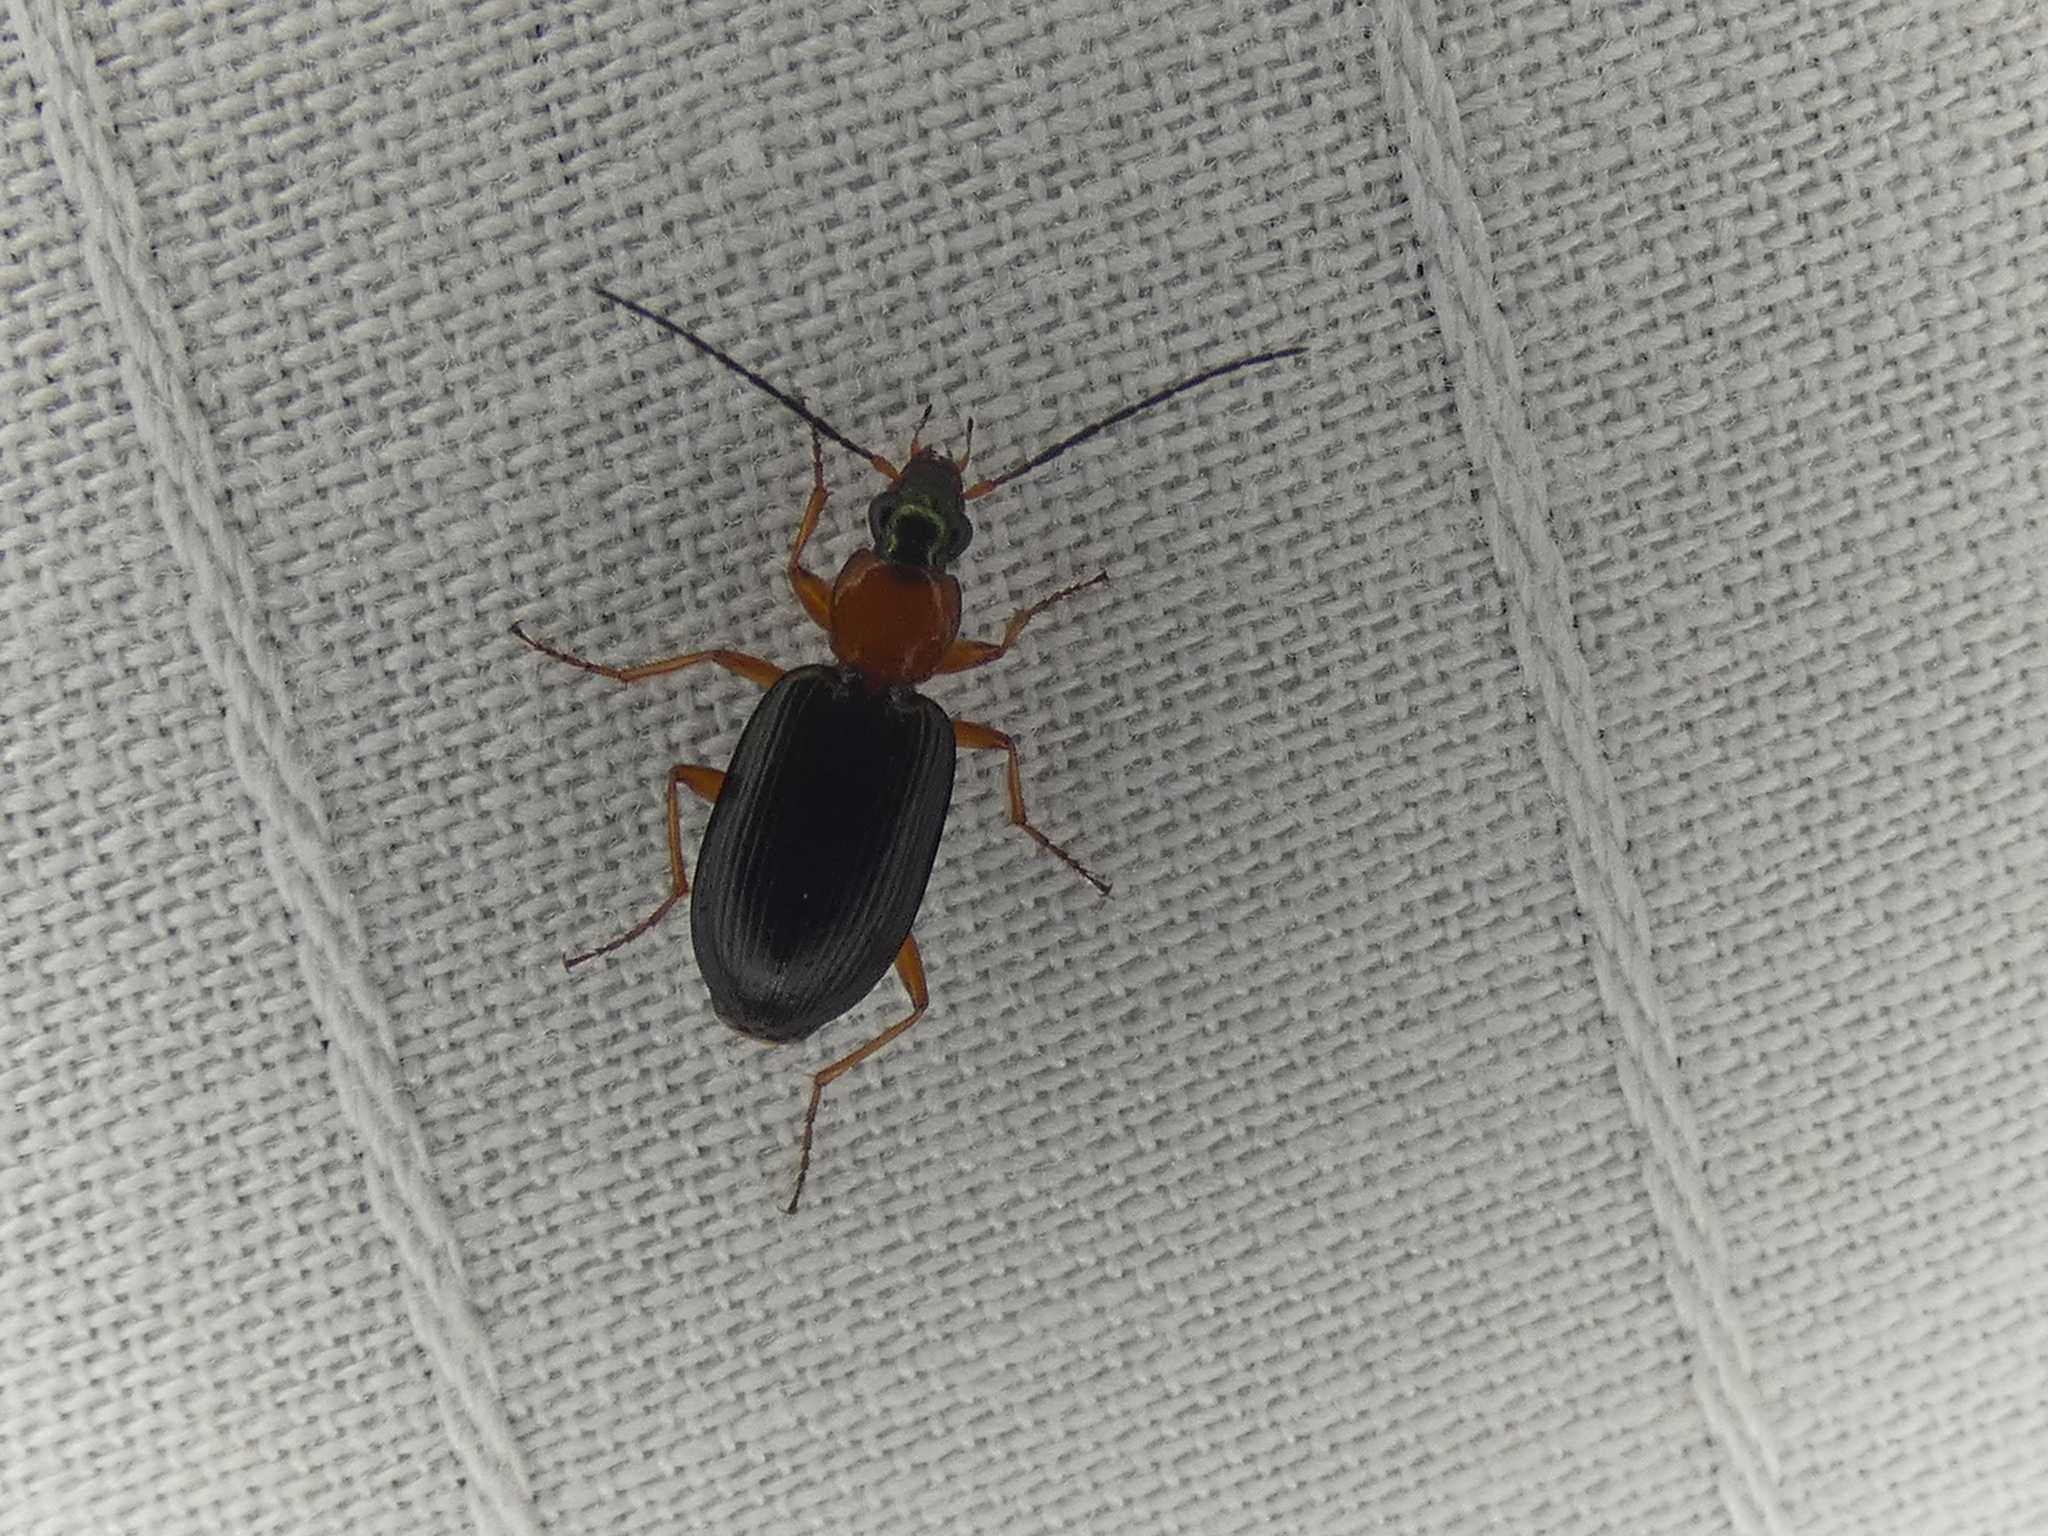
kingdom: Animalia
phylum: Arthropoda
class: Insecta
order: Coleoptera
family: Carabidae
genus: Agonum
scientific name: Agonum decorum
